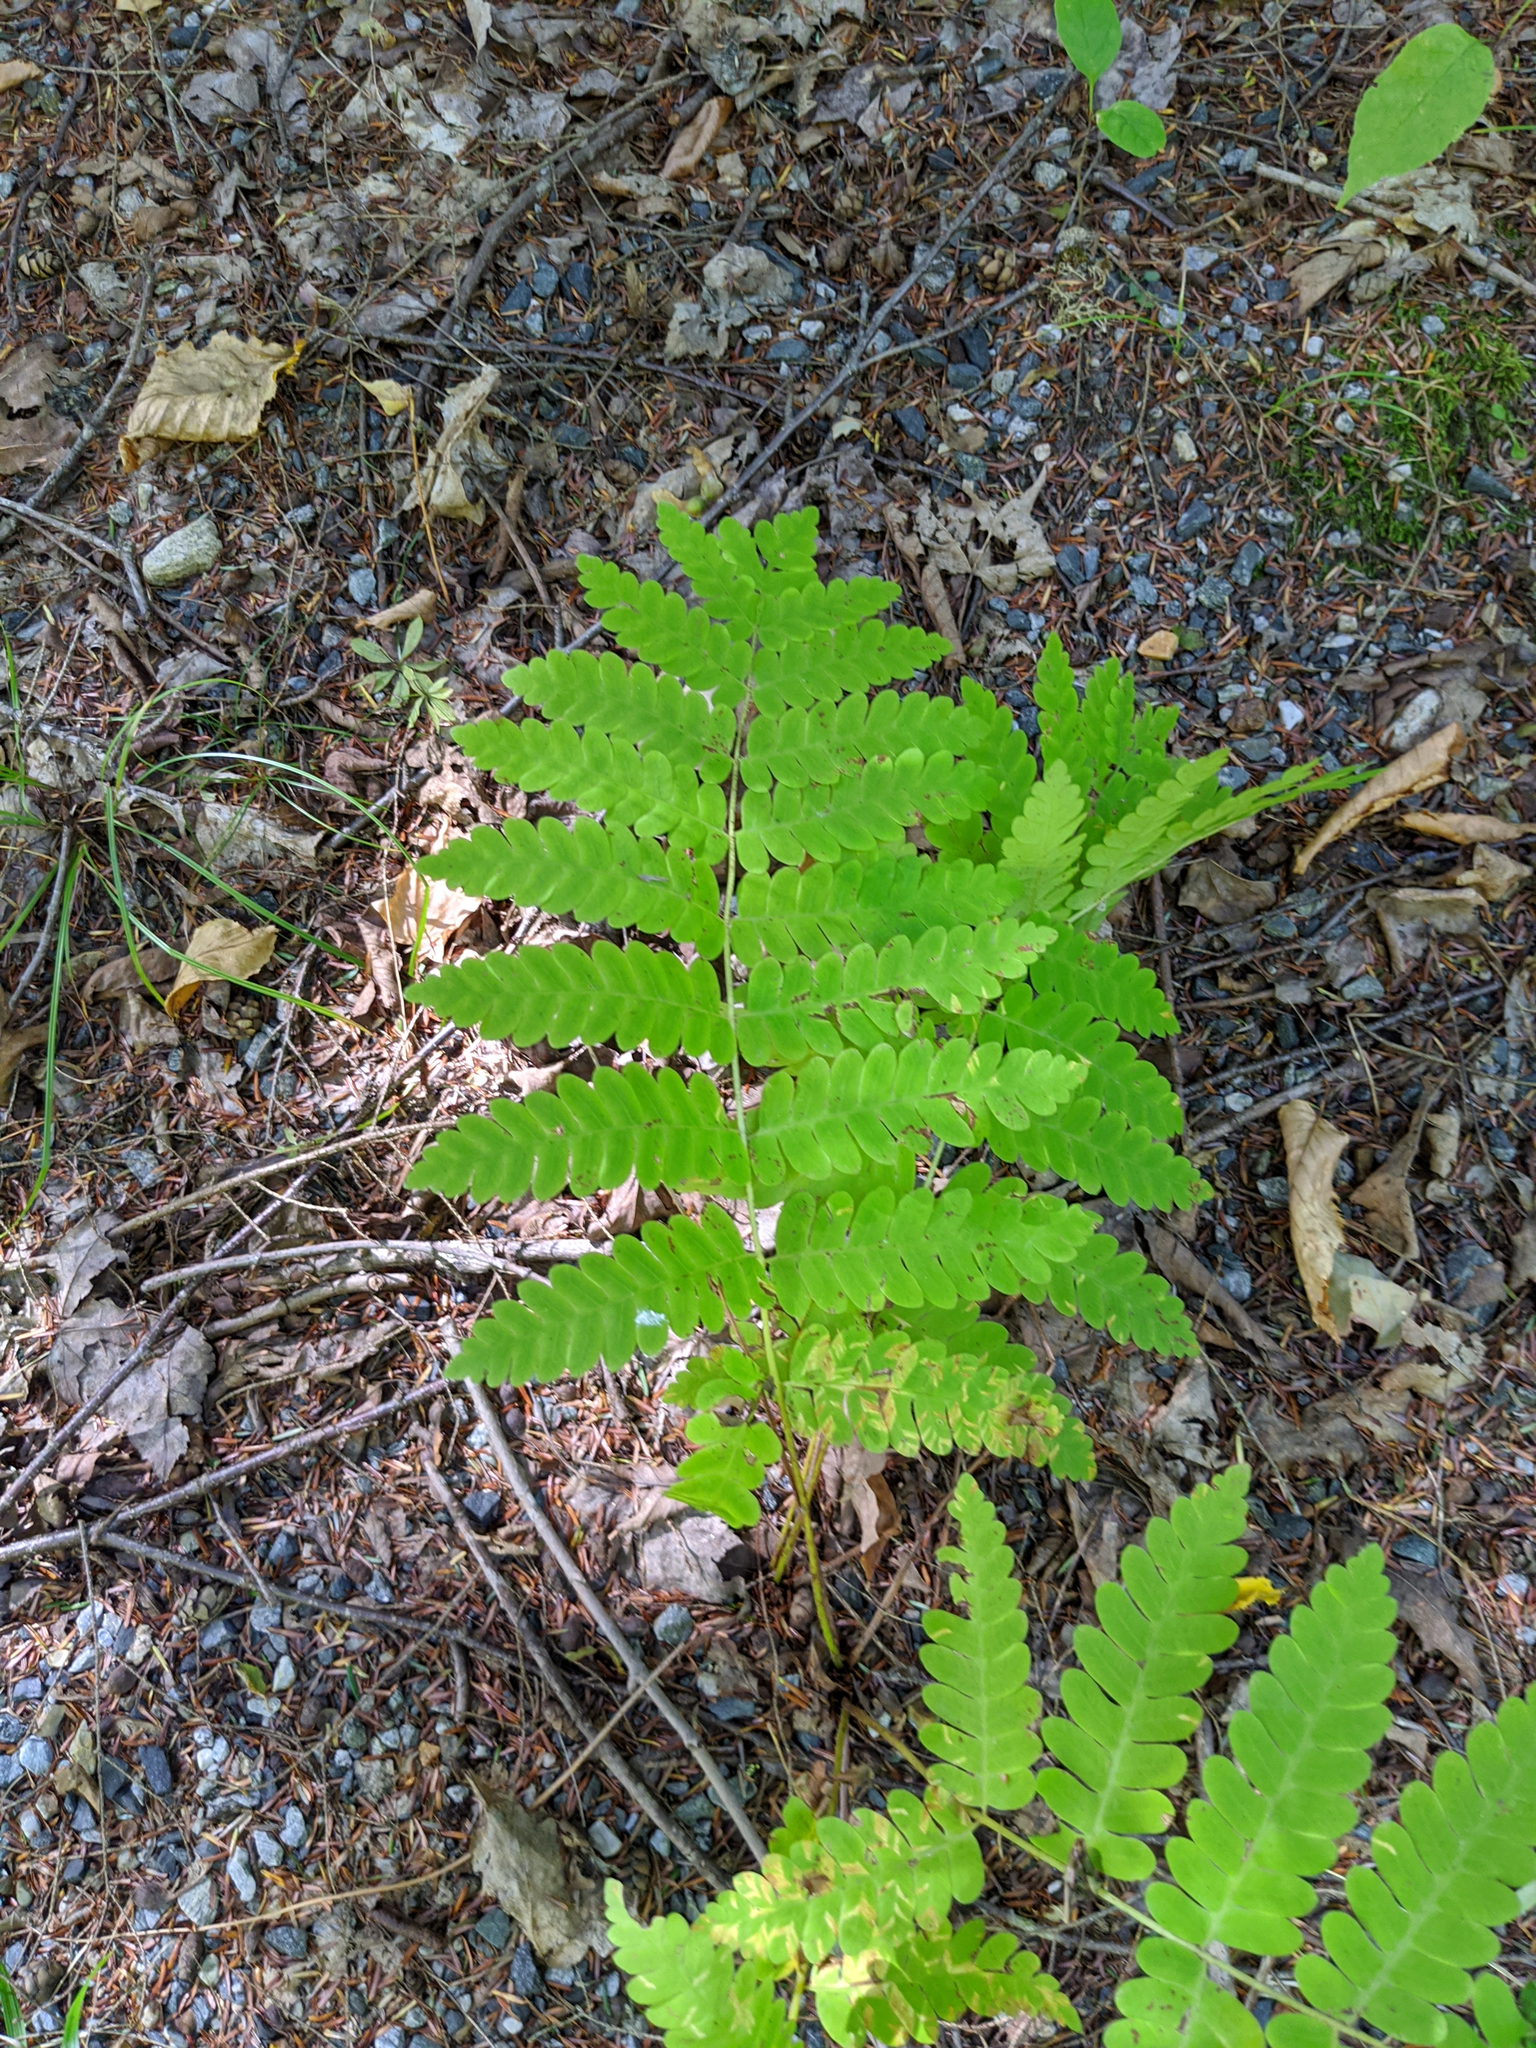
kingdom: Plantae
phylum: Tracheophyta
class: Polypodiopsida
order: Osmundales
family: Osmundaceae
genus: Claytosmunda
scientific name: Claytosmunda claytoniana
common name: Clayton's fern
